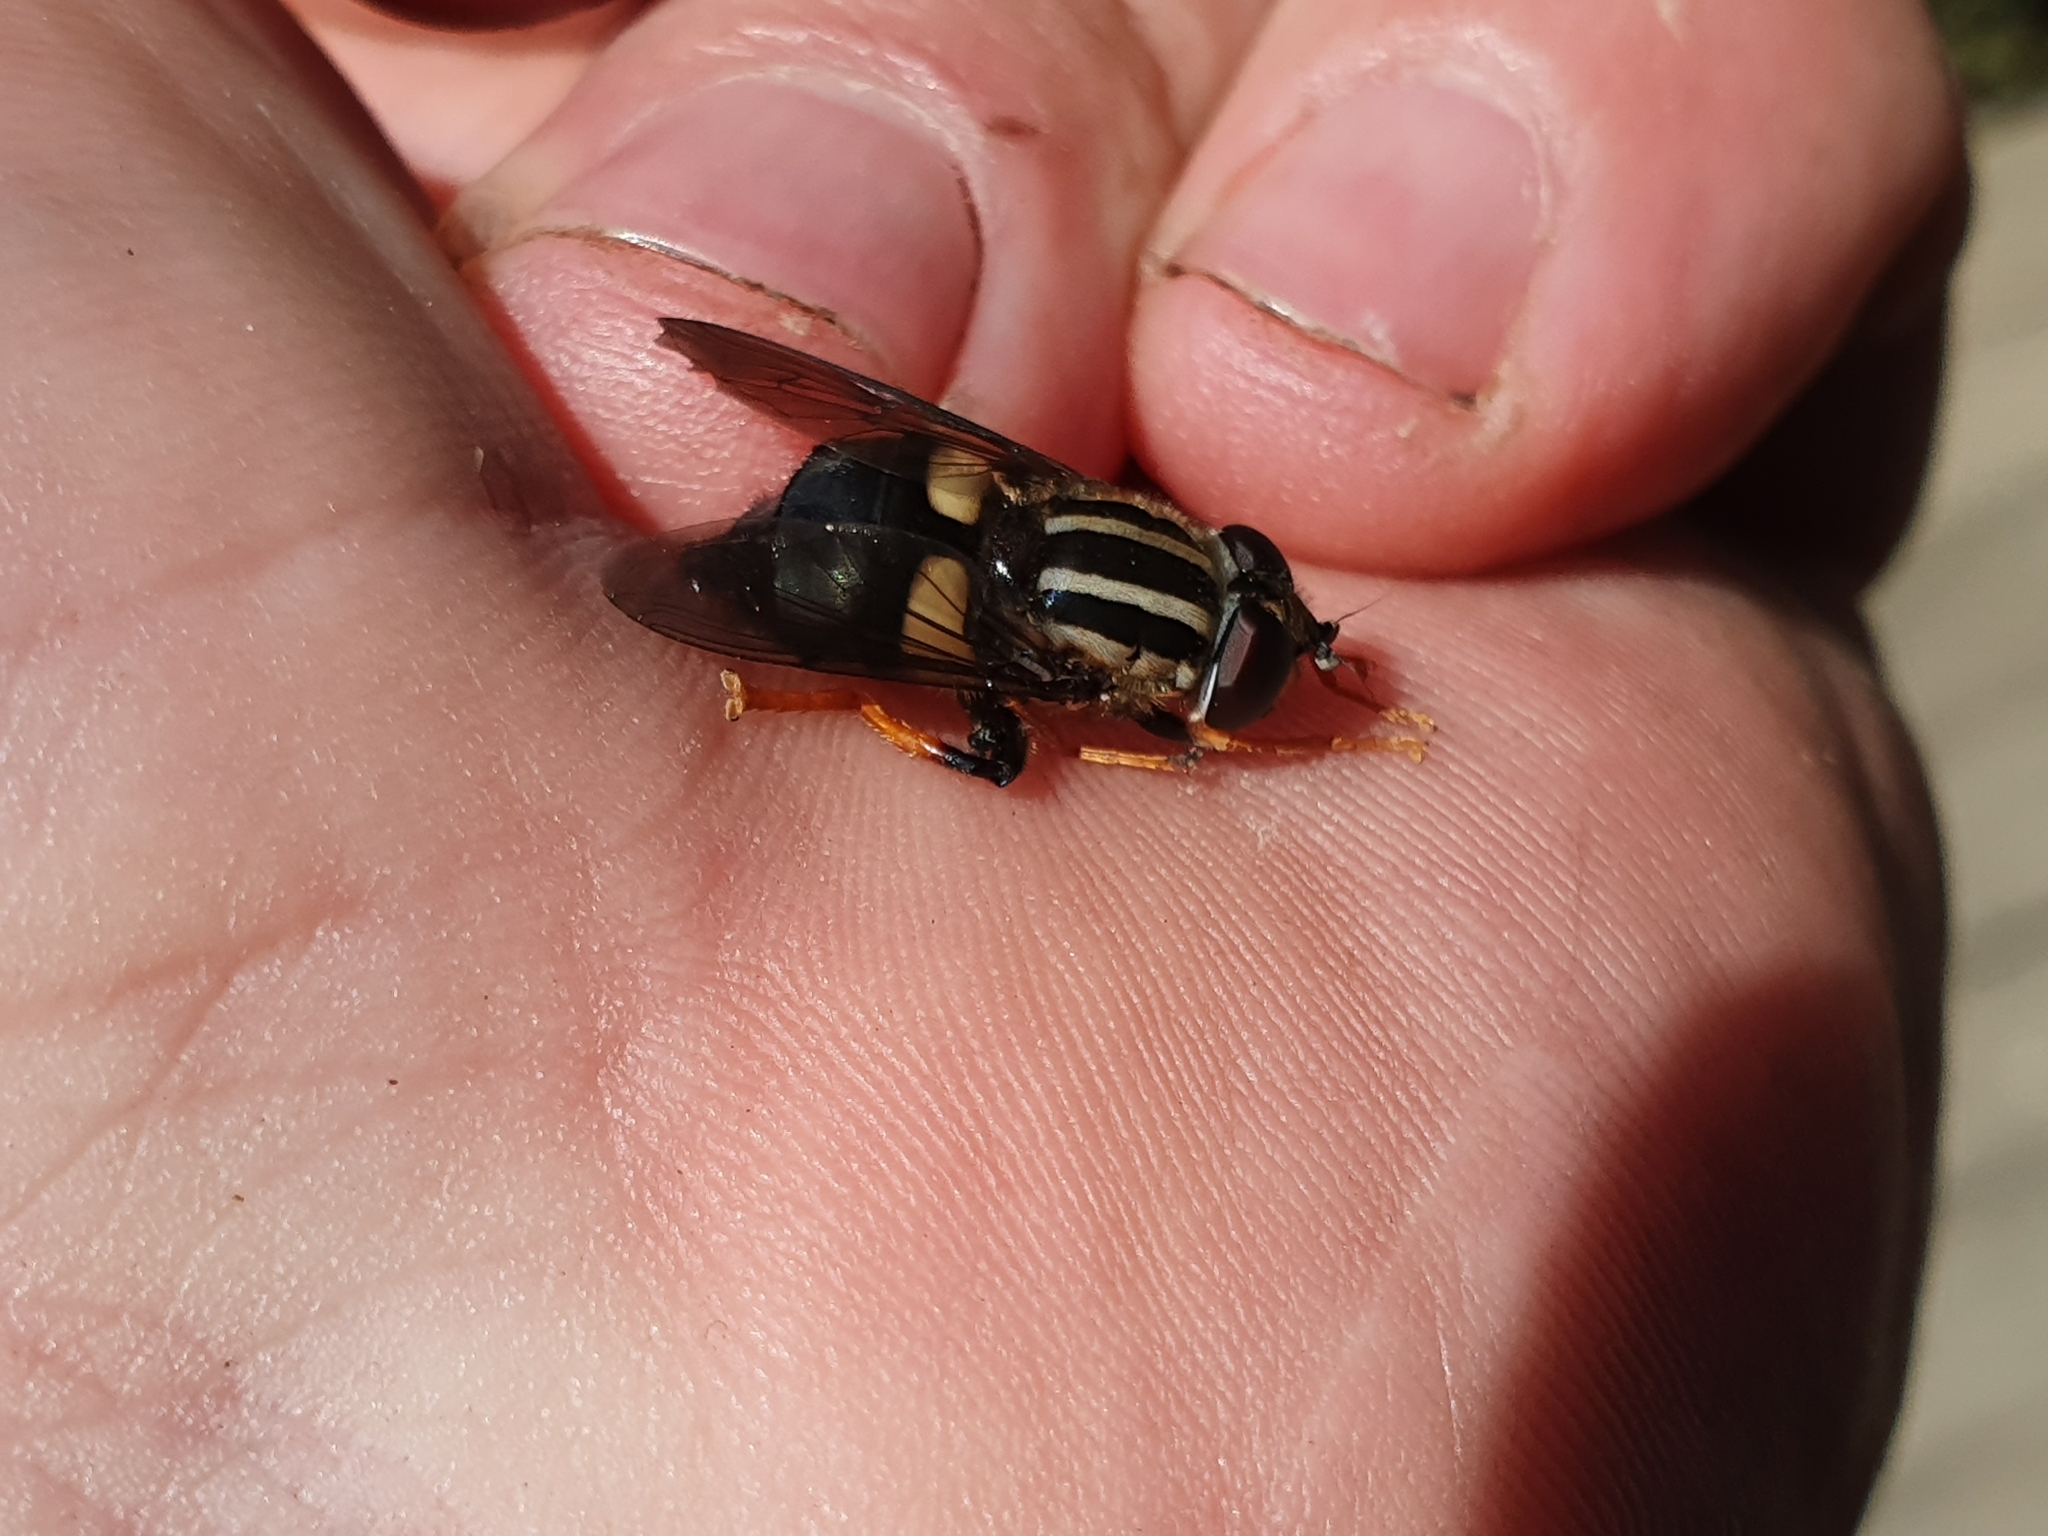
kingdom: Animalia
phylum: Arthropoda
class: Insecta
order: Diptera
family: Syrphidae
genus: Helophilus
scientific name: Helophilus seelandicus
